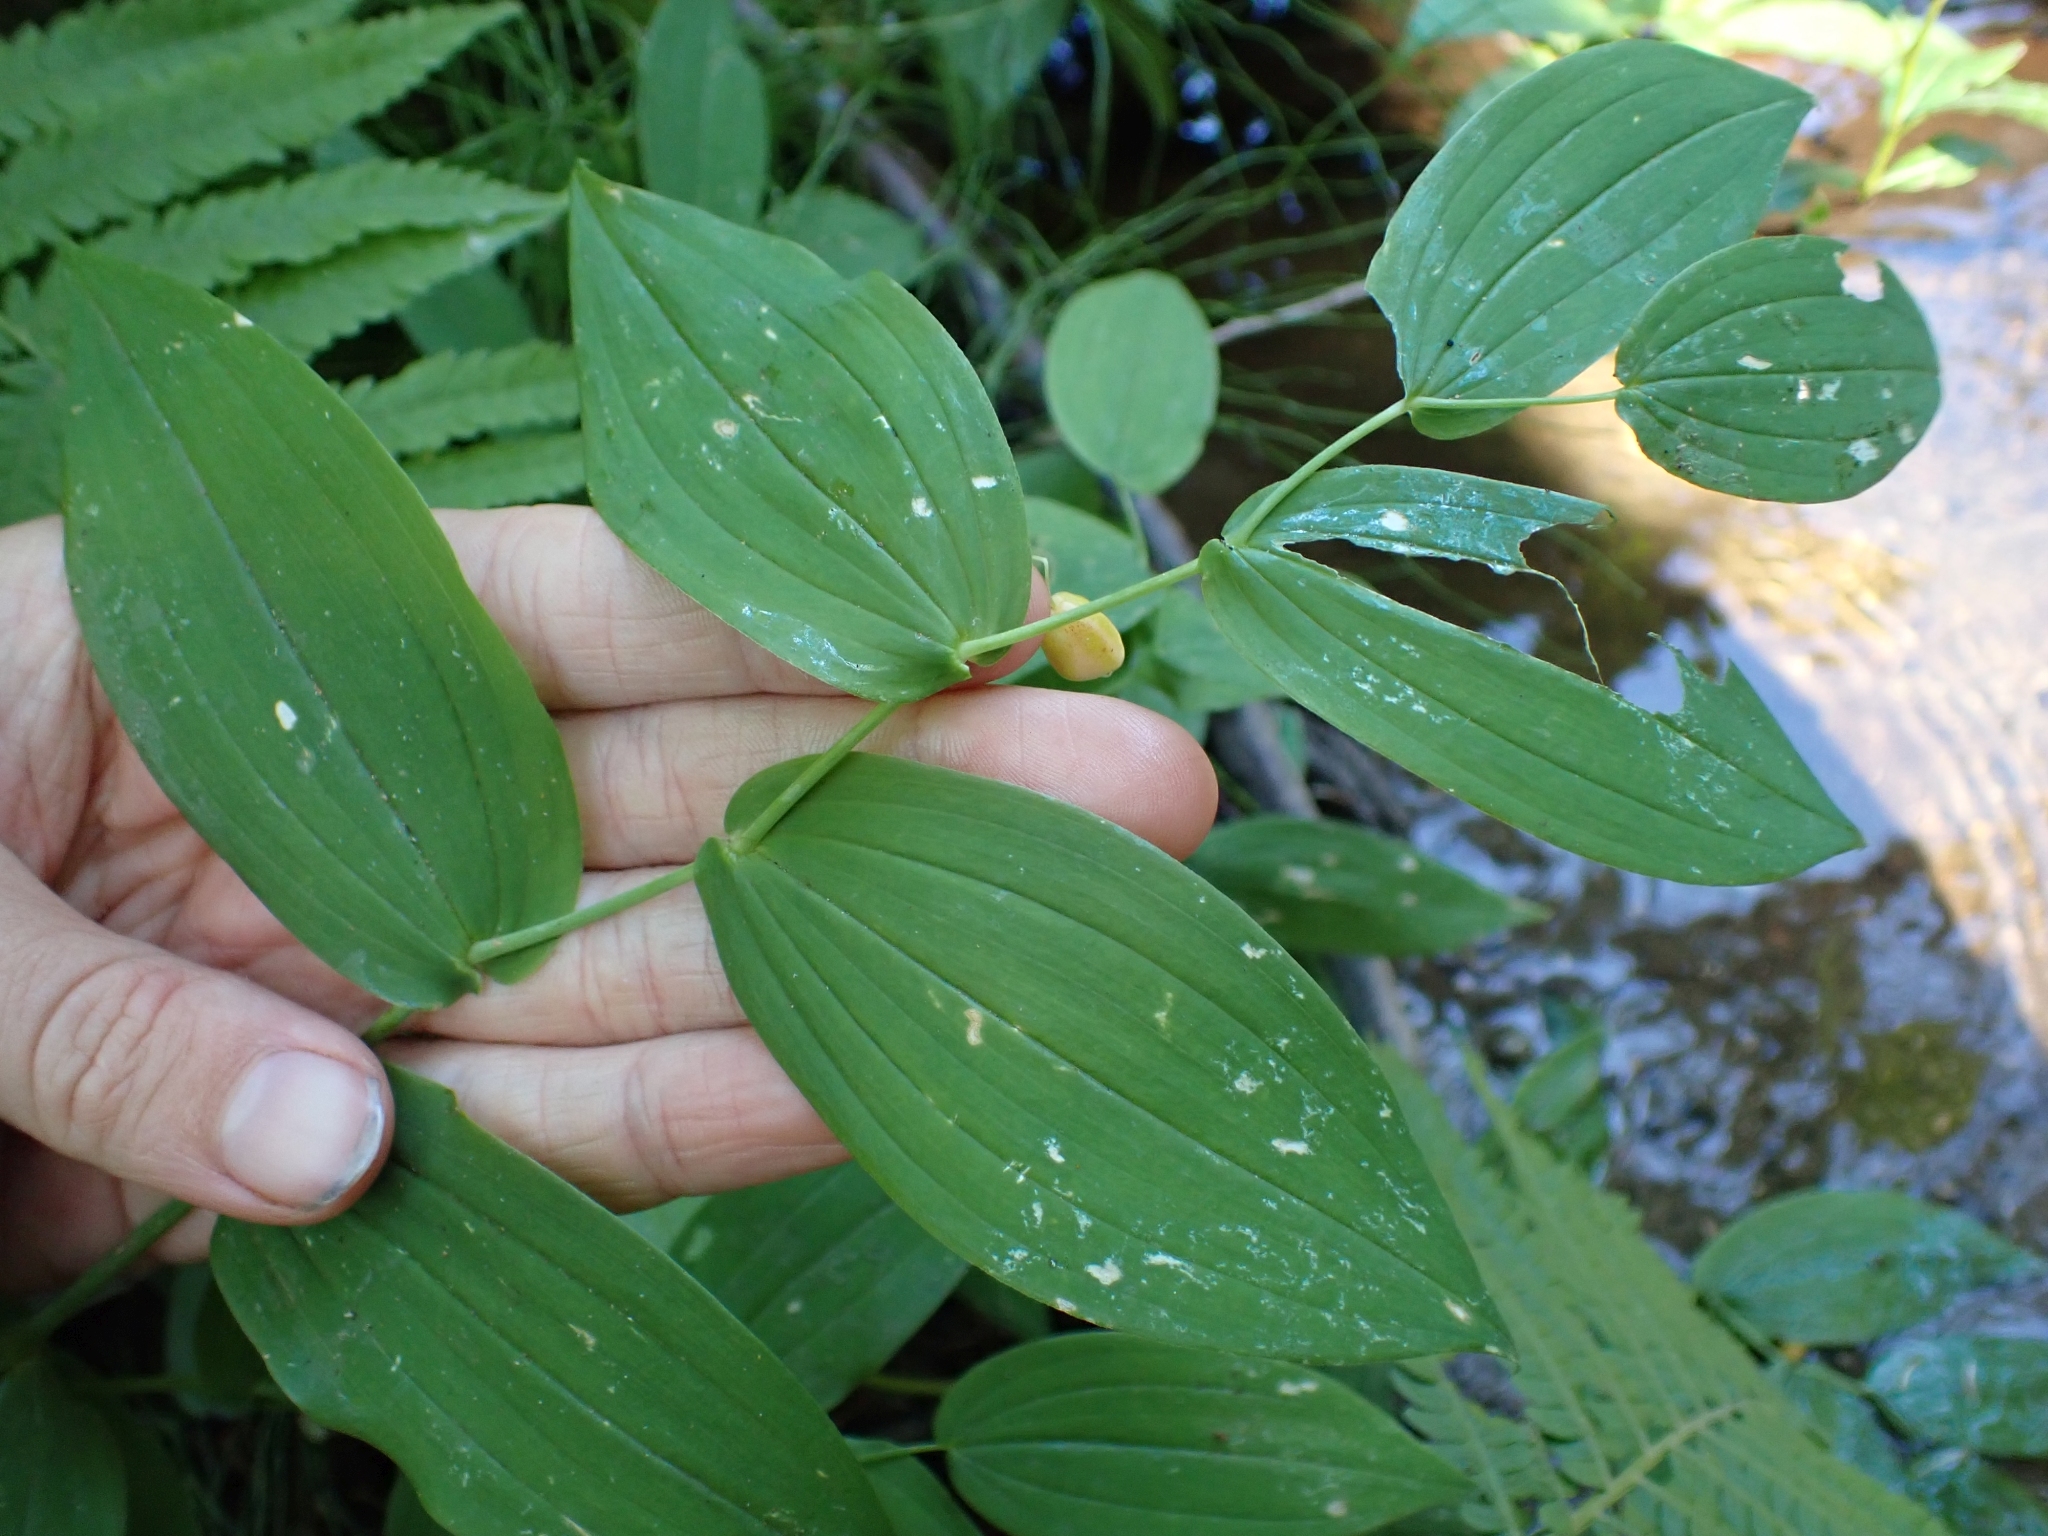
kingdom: Plantae
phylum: Tracheophyta
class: Liliopsida
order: Liliales
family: Liliaceae
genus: Streptopus
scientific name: Streptopus amplexifolius
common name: Clasp twisted stalk
